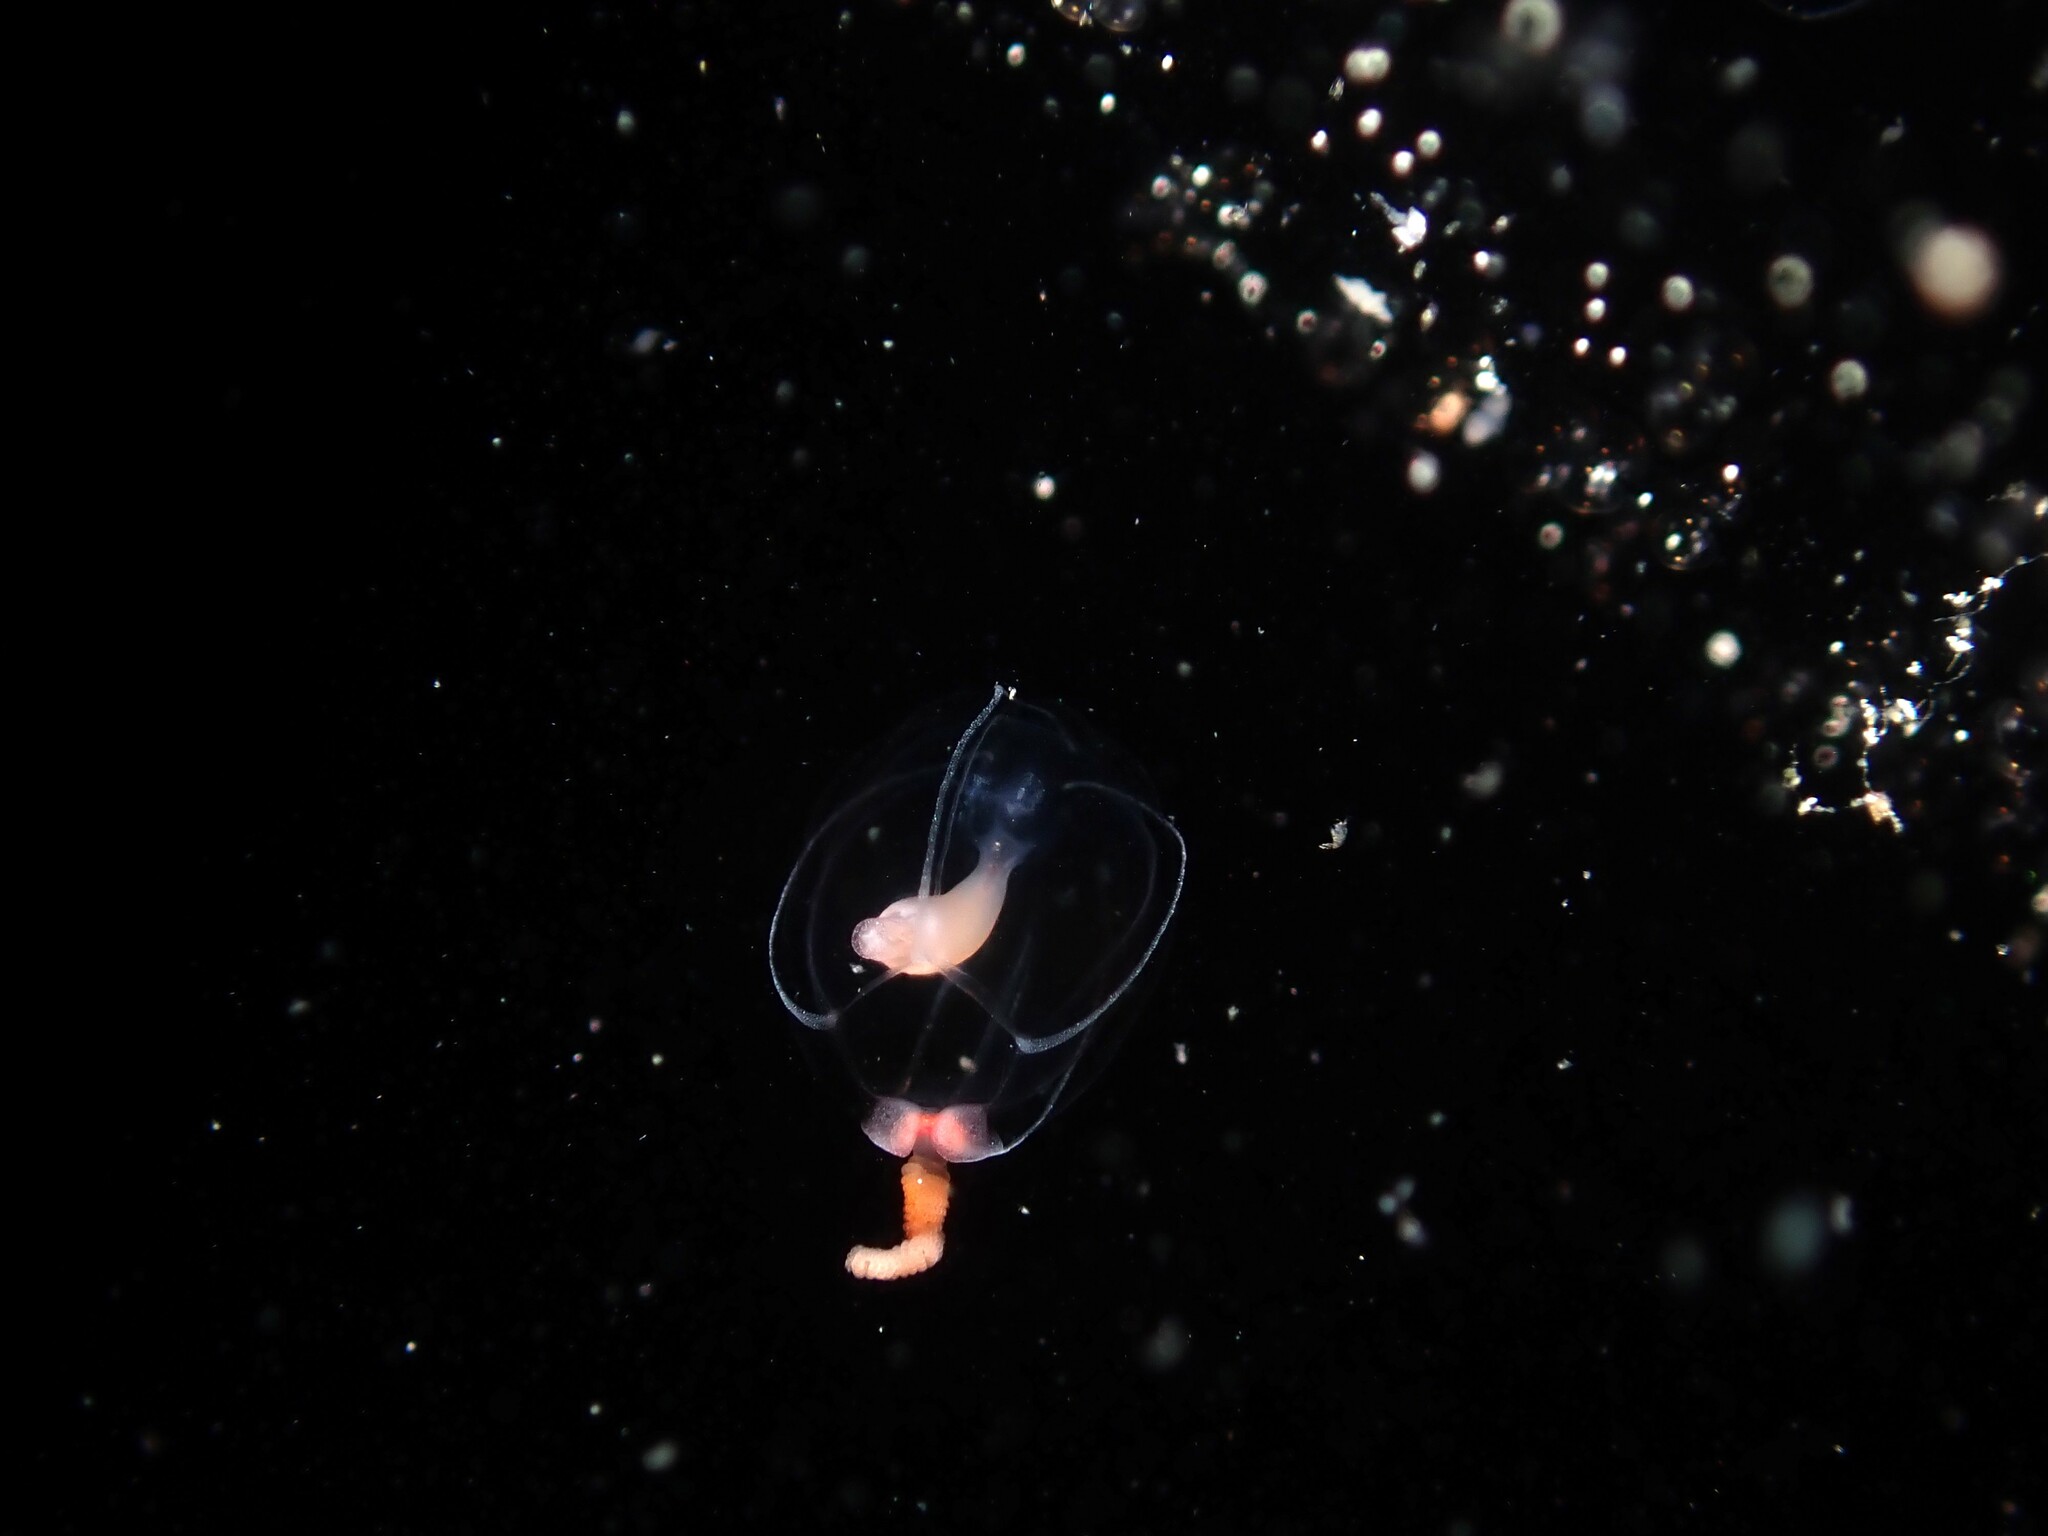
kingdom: Animalia
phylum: Cnidaria
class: Hydrozoa
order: Anthoathecata
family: Tubulariidae
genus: Hybocodon
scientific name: Hybocodon chilensis
